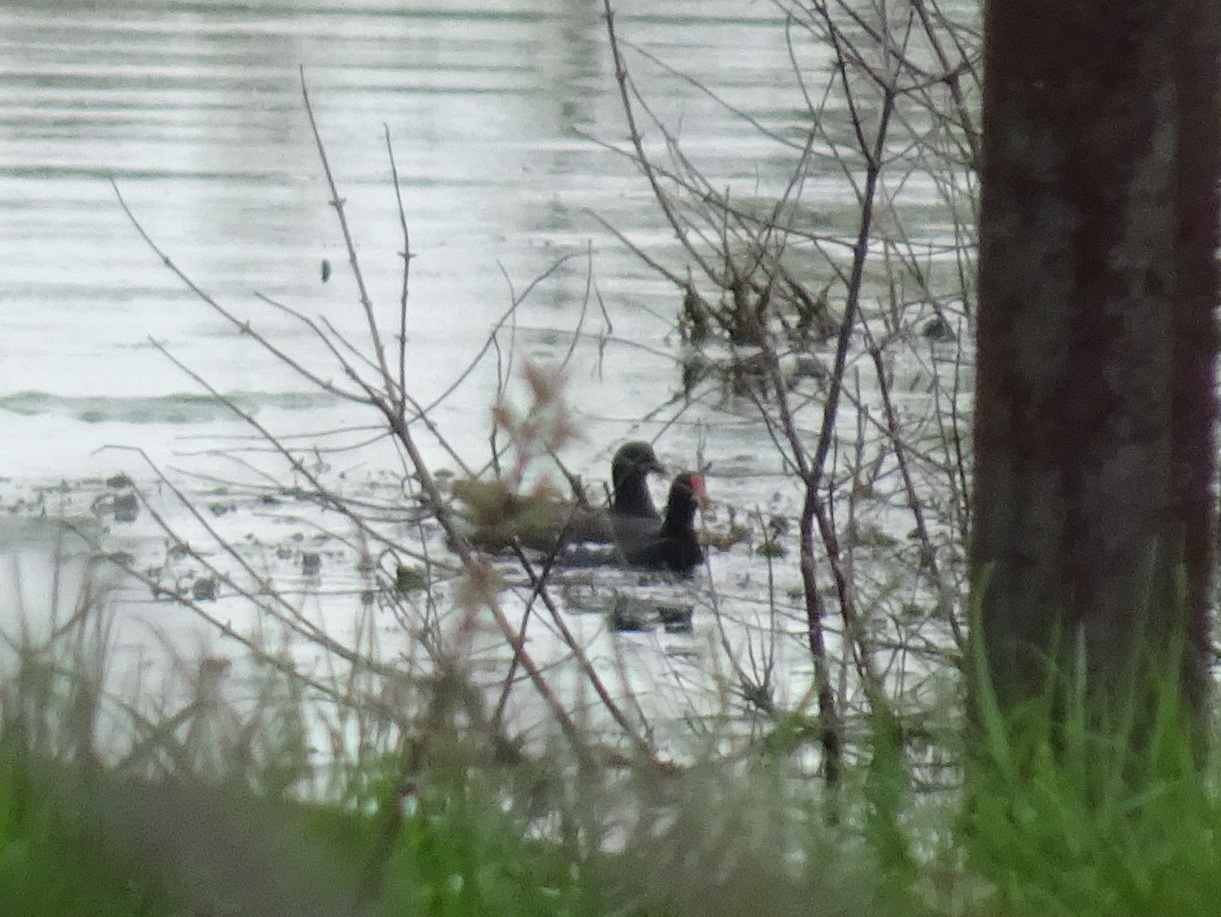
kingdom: Animalia
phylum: Chordata
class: Aves
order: Gruiformes
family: Rallidae
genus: Gallinula
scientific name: Gallinula chloropus
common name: Common moorhen
